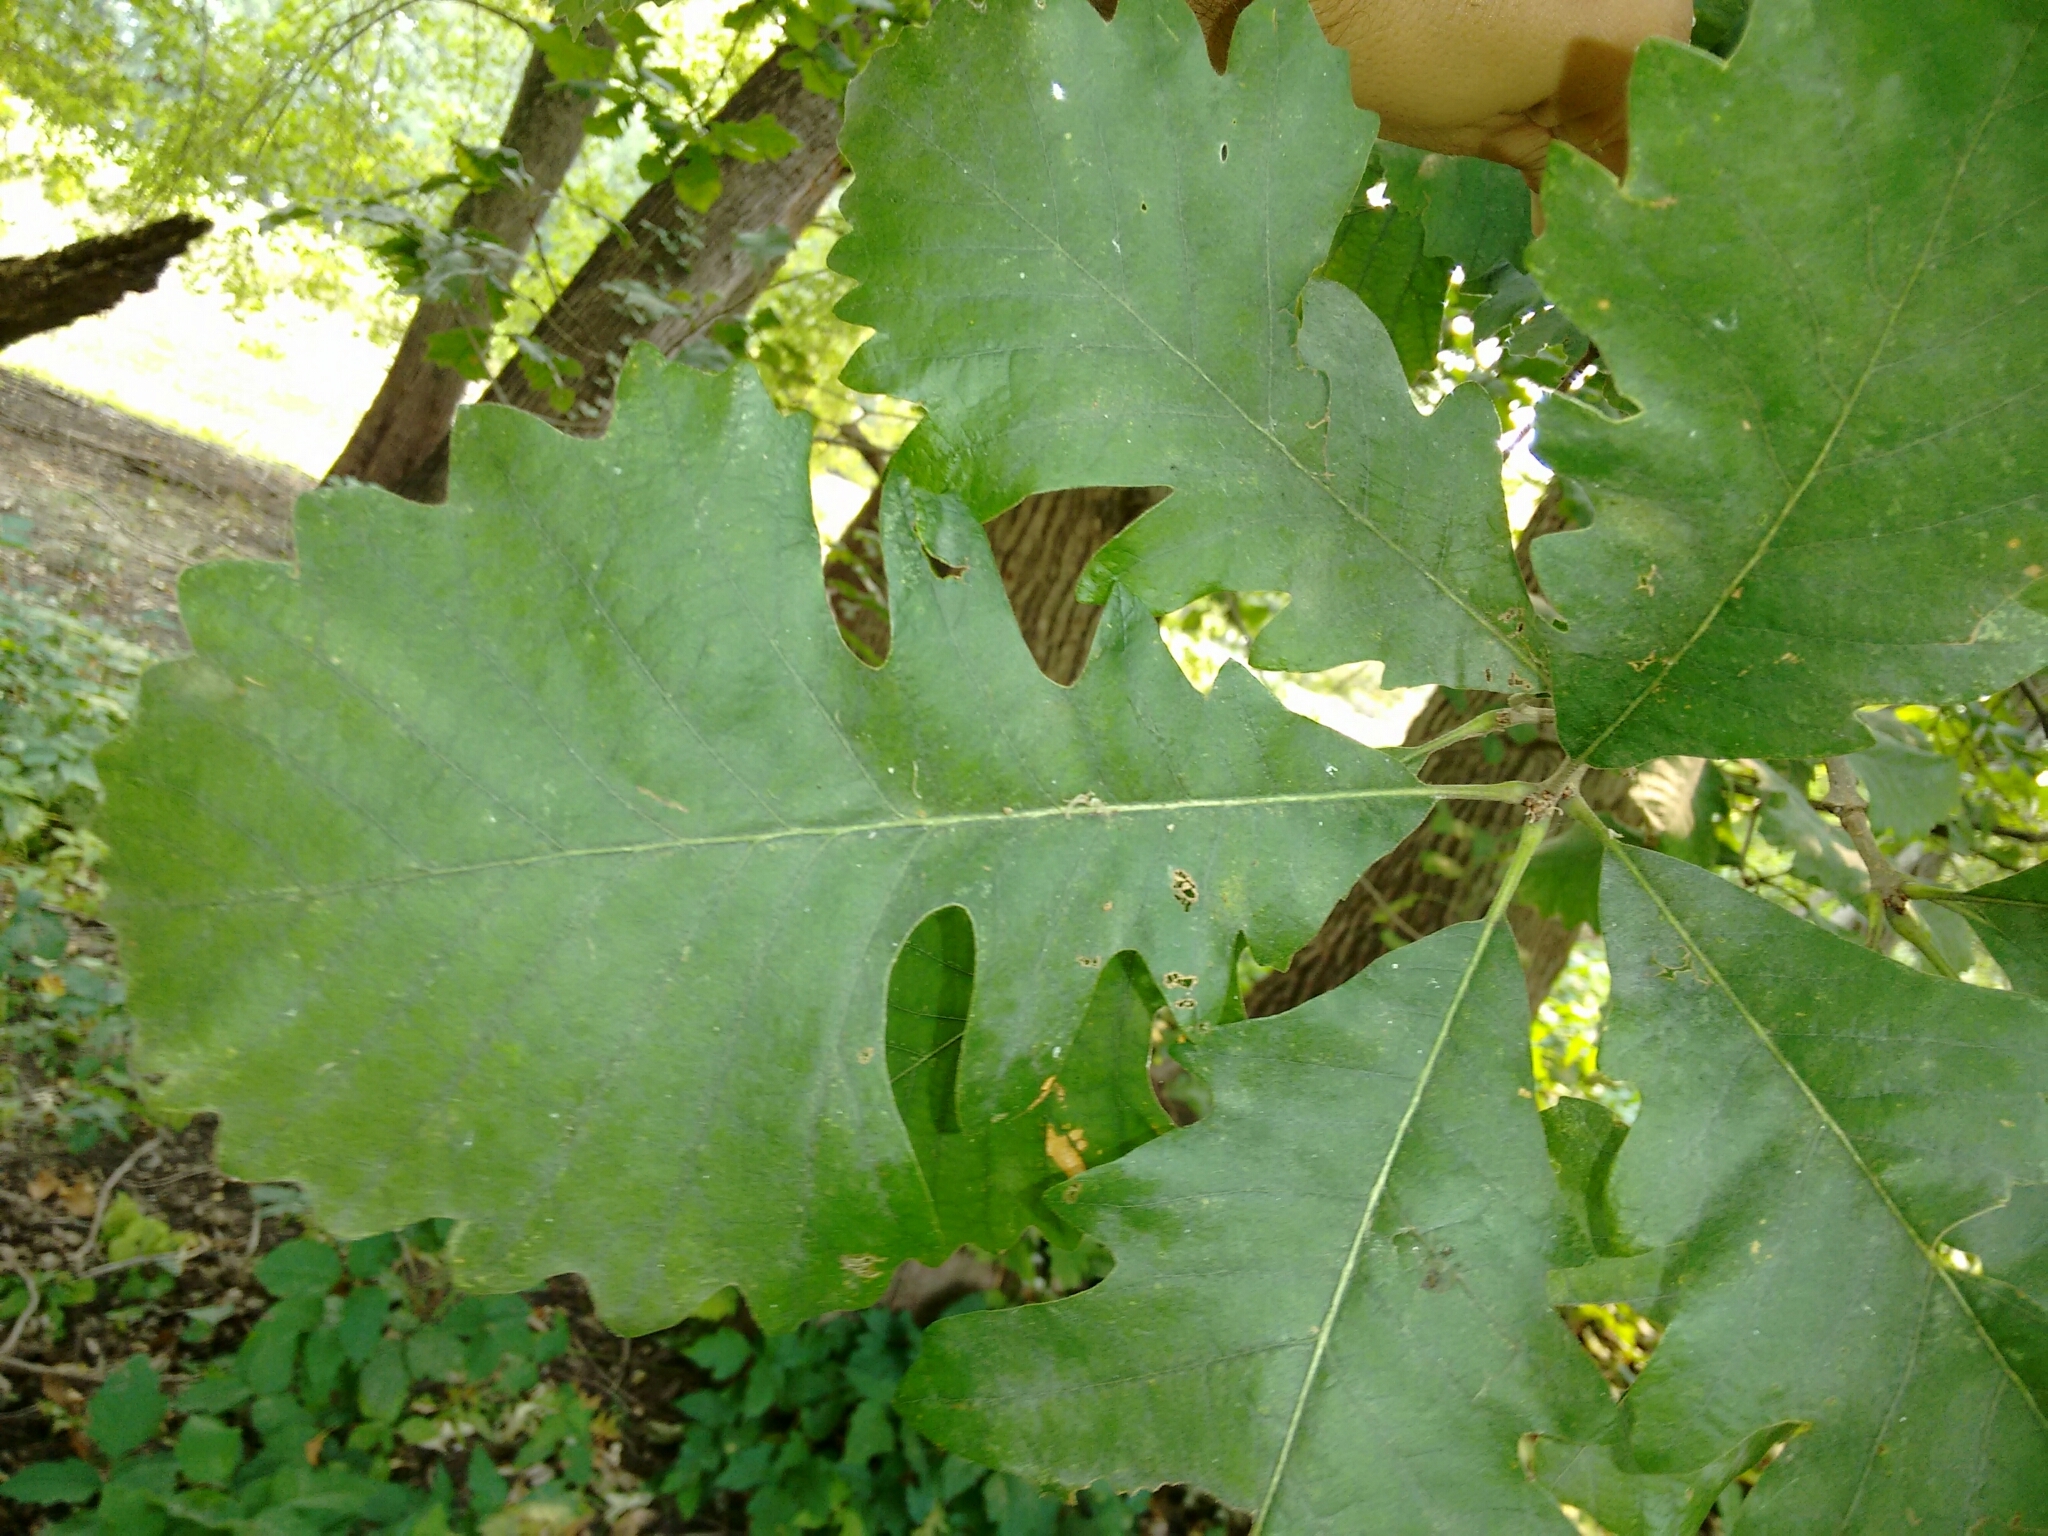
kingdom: Plantae
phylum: Tracheophyta
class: Magnoliopsida
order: Fagales
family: Fagaceae
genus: Quercus
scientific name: Quercus macrocarpa
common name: Bur oak
